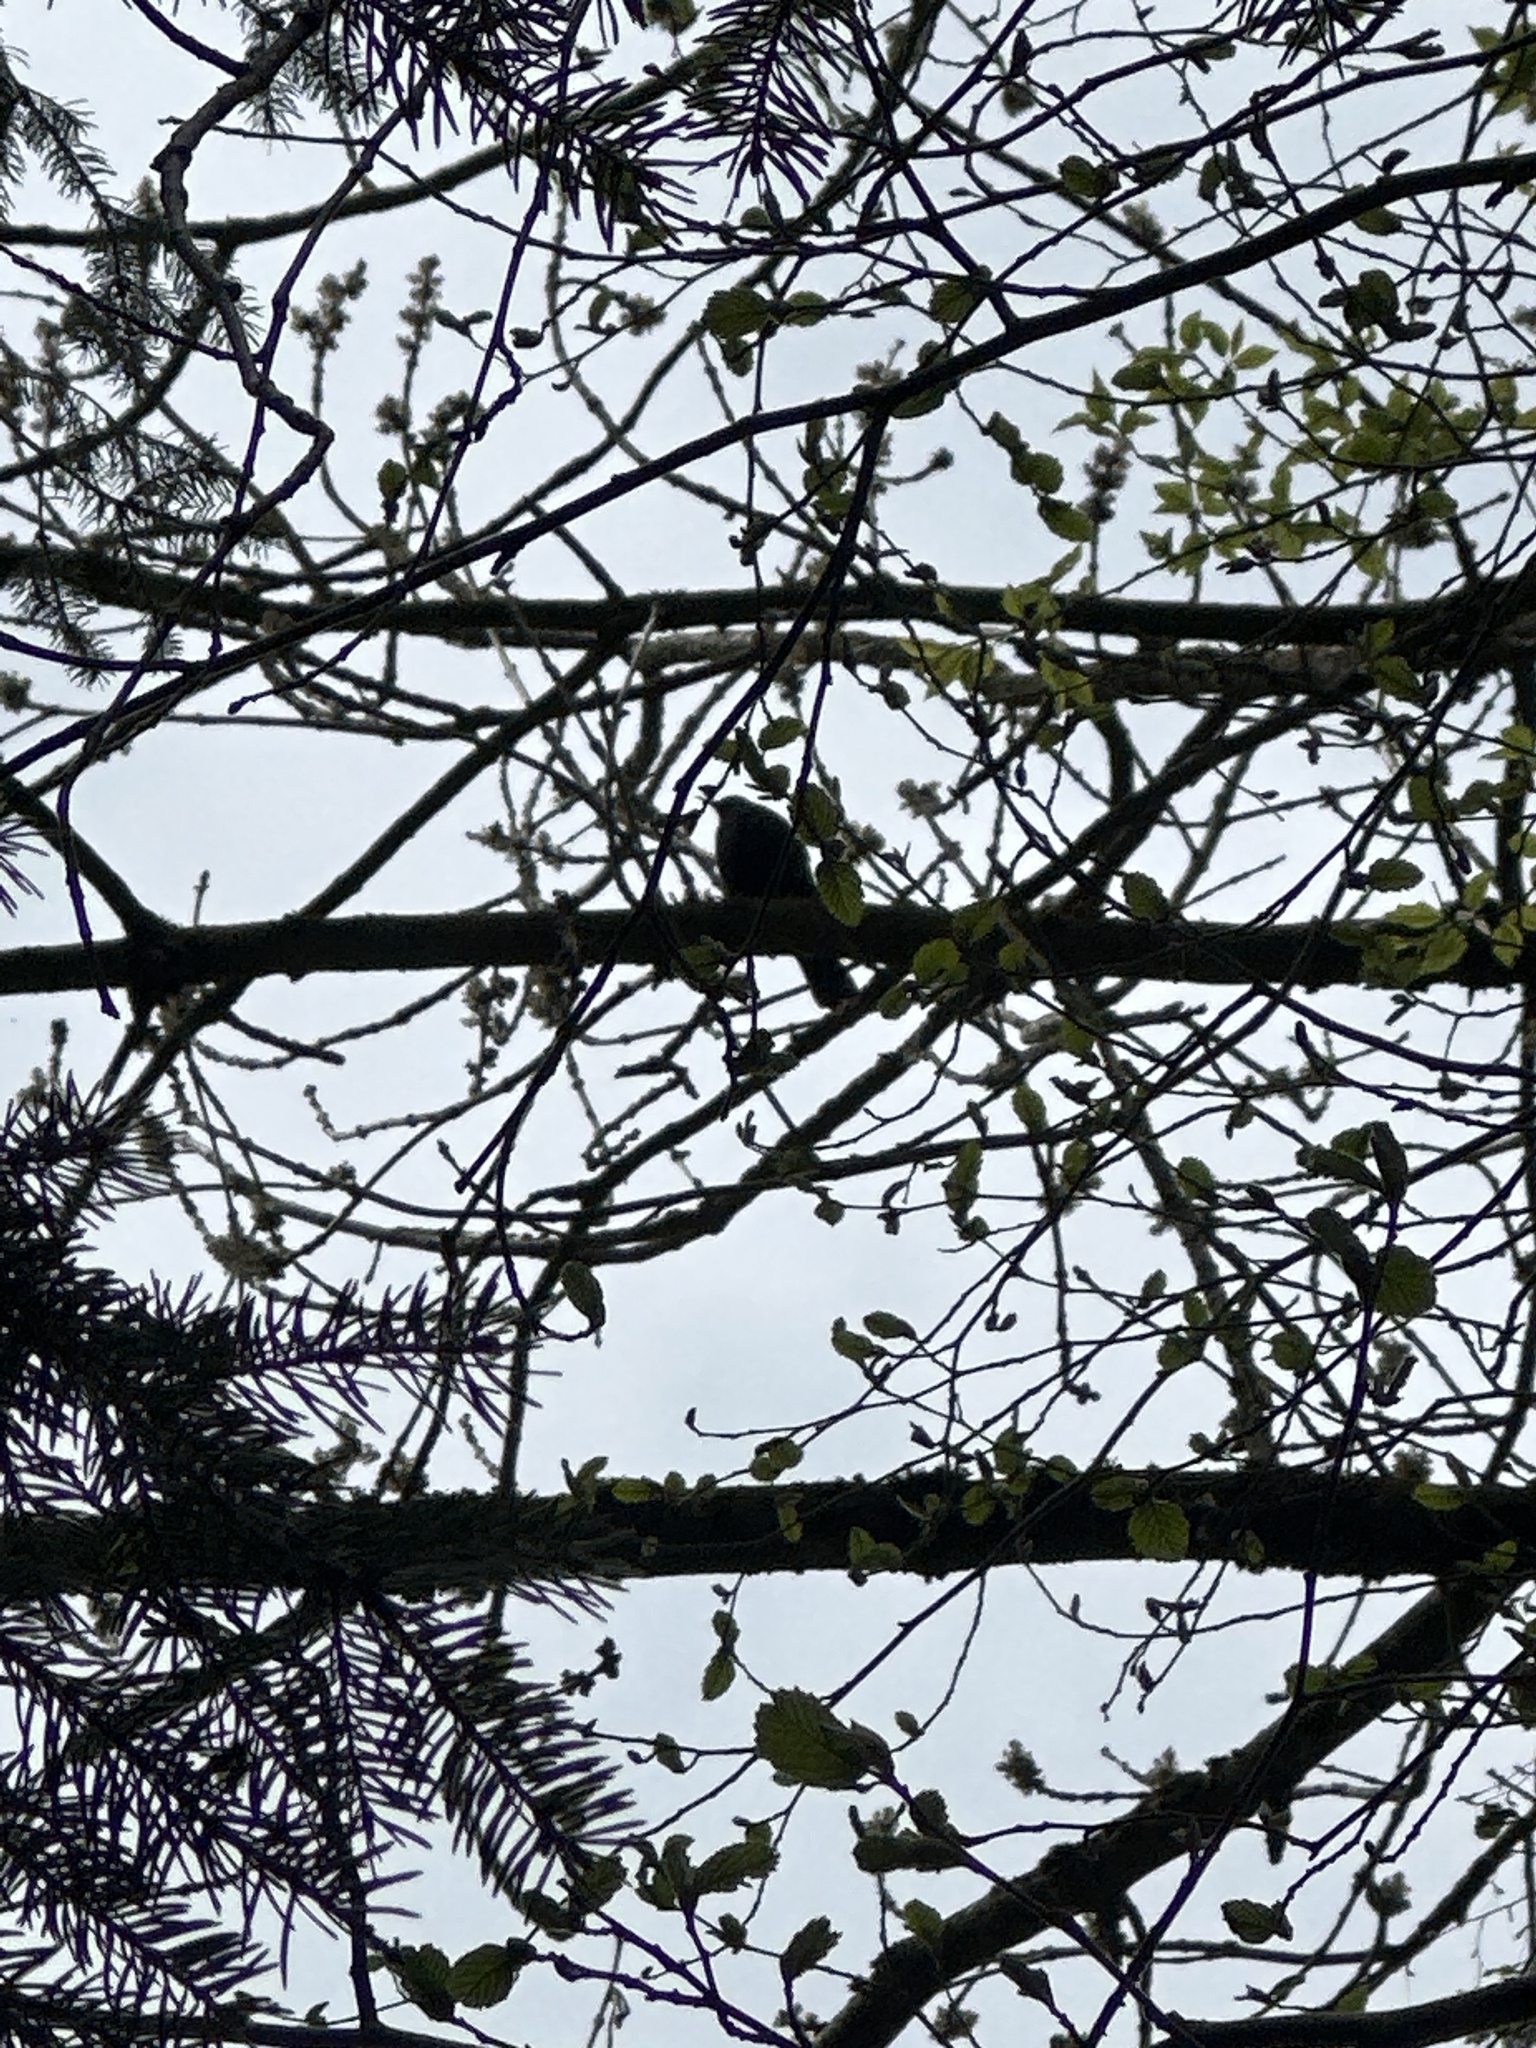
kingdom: Animalia
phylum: Chordata
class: Aves
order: Passeriformes
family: Turdidae
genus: Turdus
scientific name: Turdus merula
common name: Common blackbird
